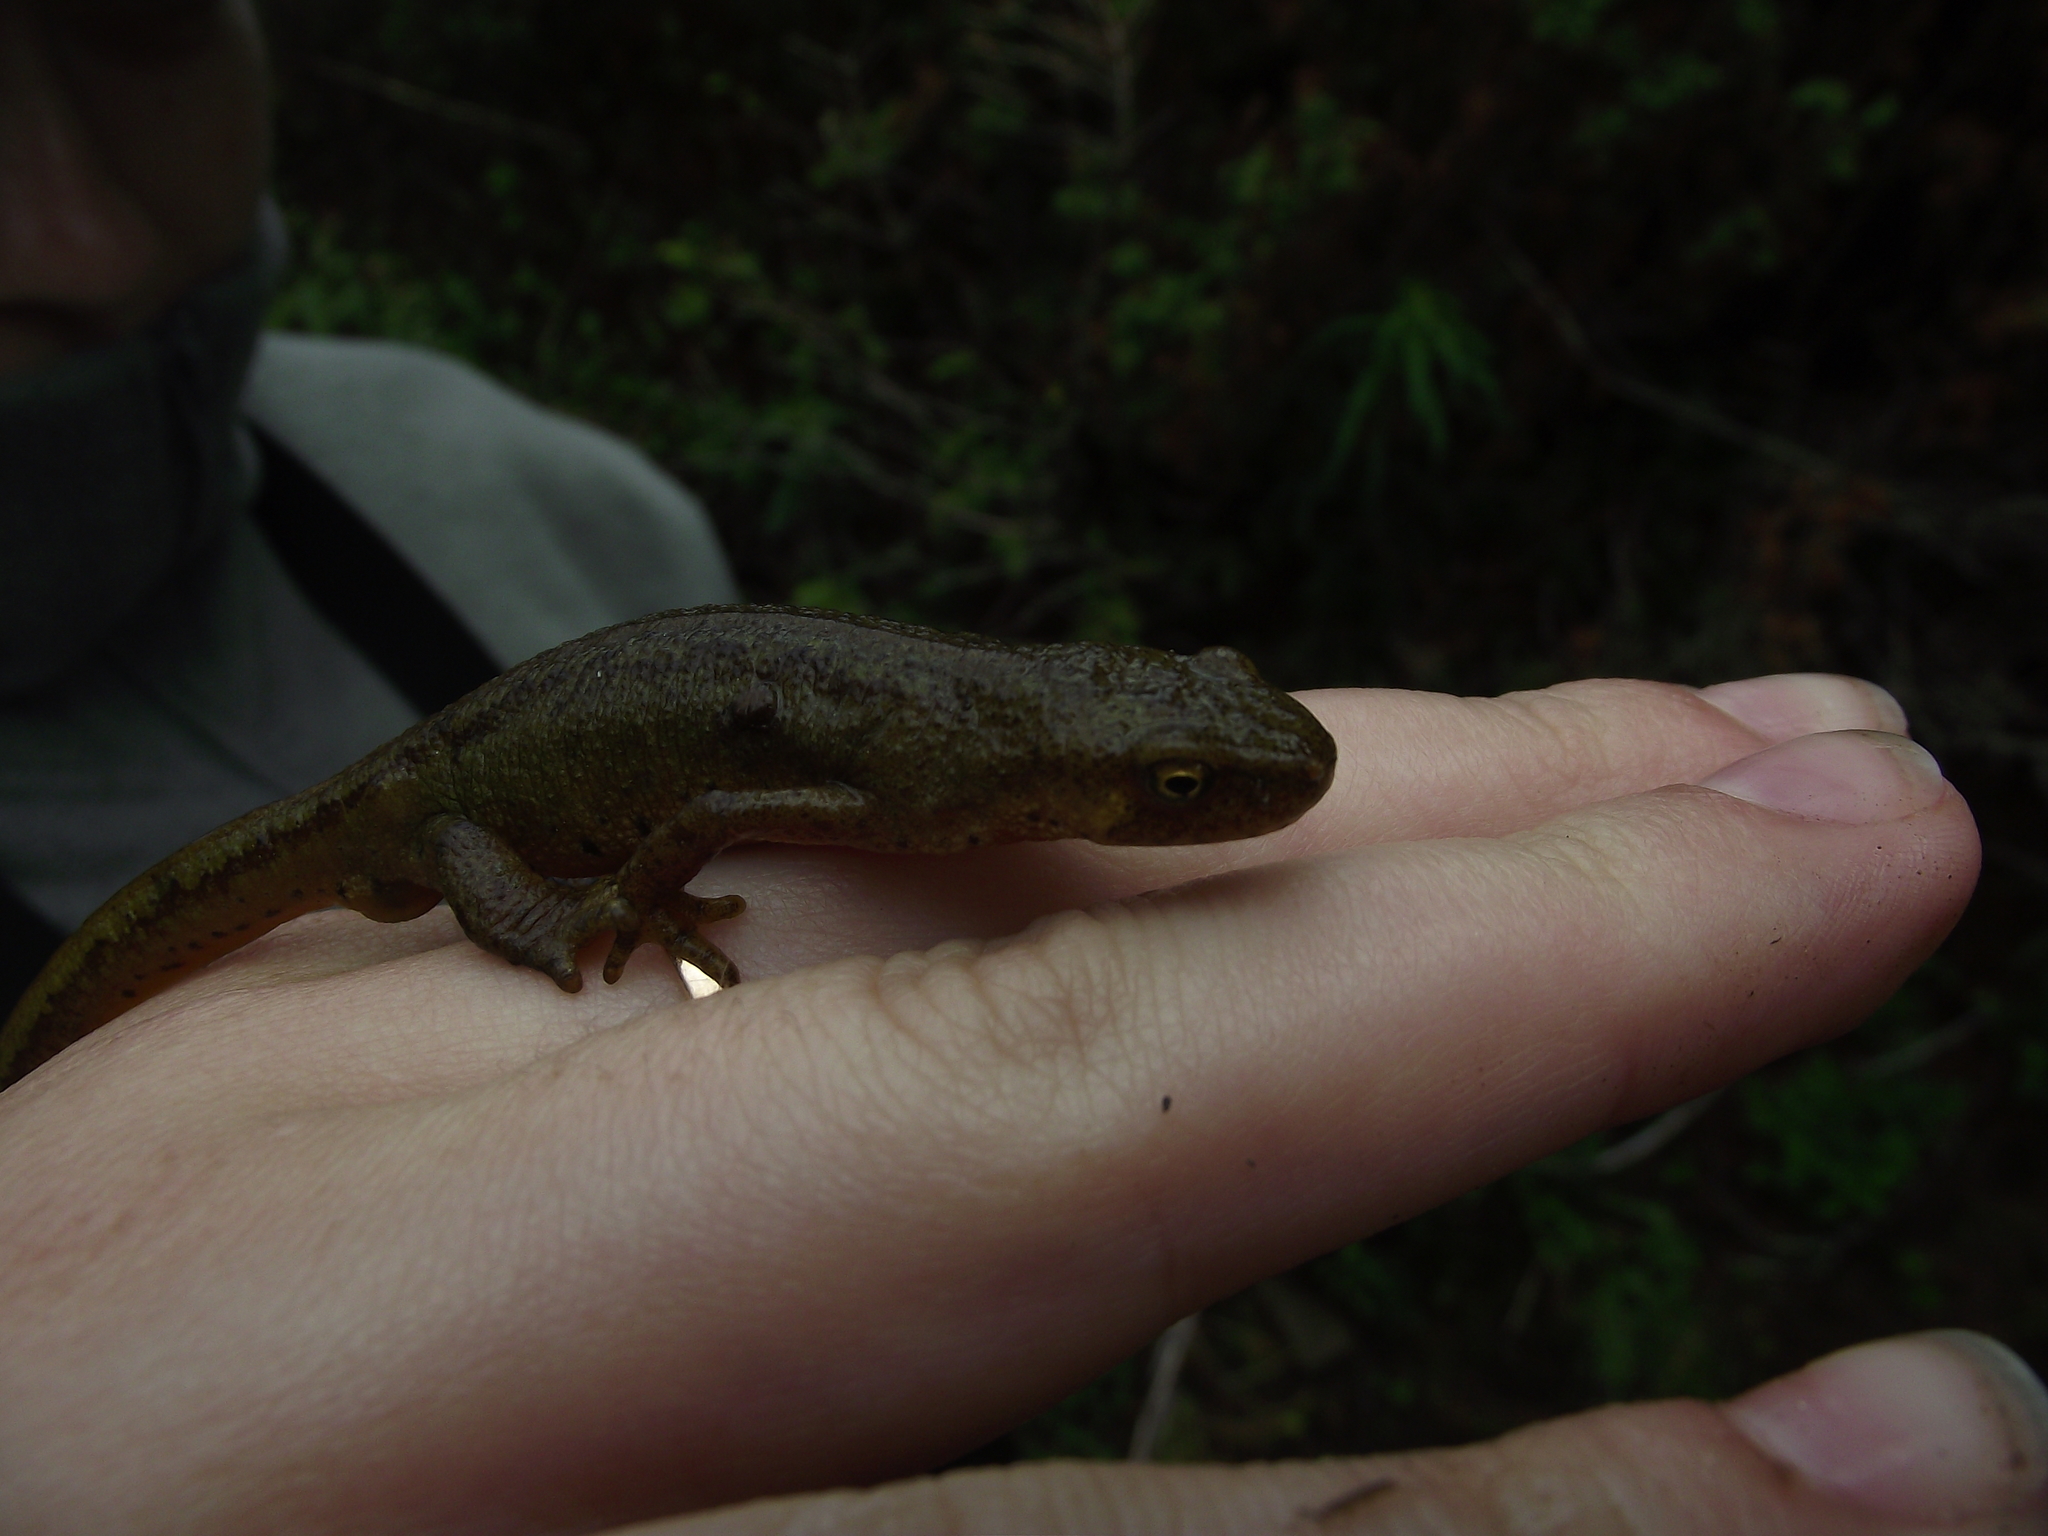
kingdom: Animalia
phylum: Chordata
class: Amphibia
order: Caudata
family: Salamandridae
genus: Lissotriton
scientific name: Lissotriton montandoni
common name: Carpathian newt
